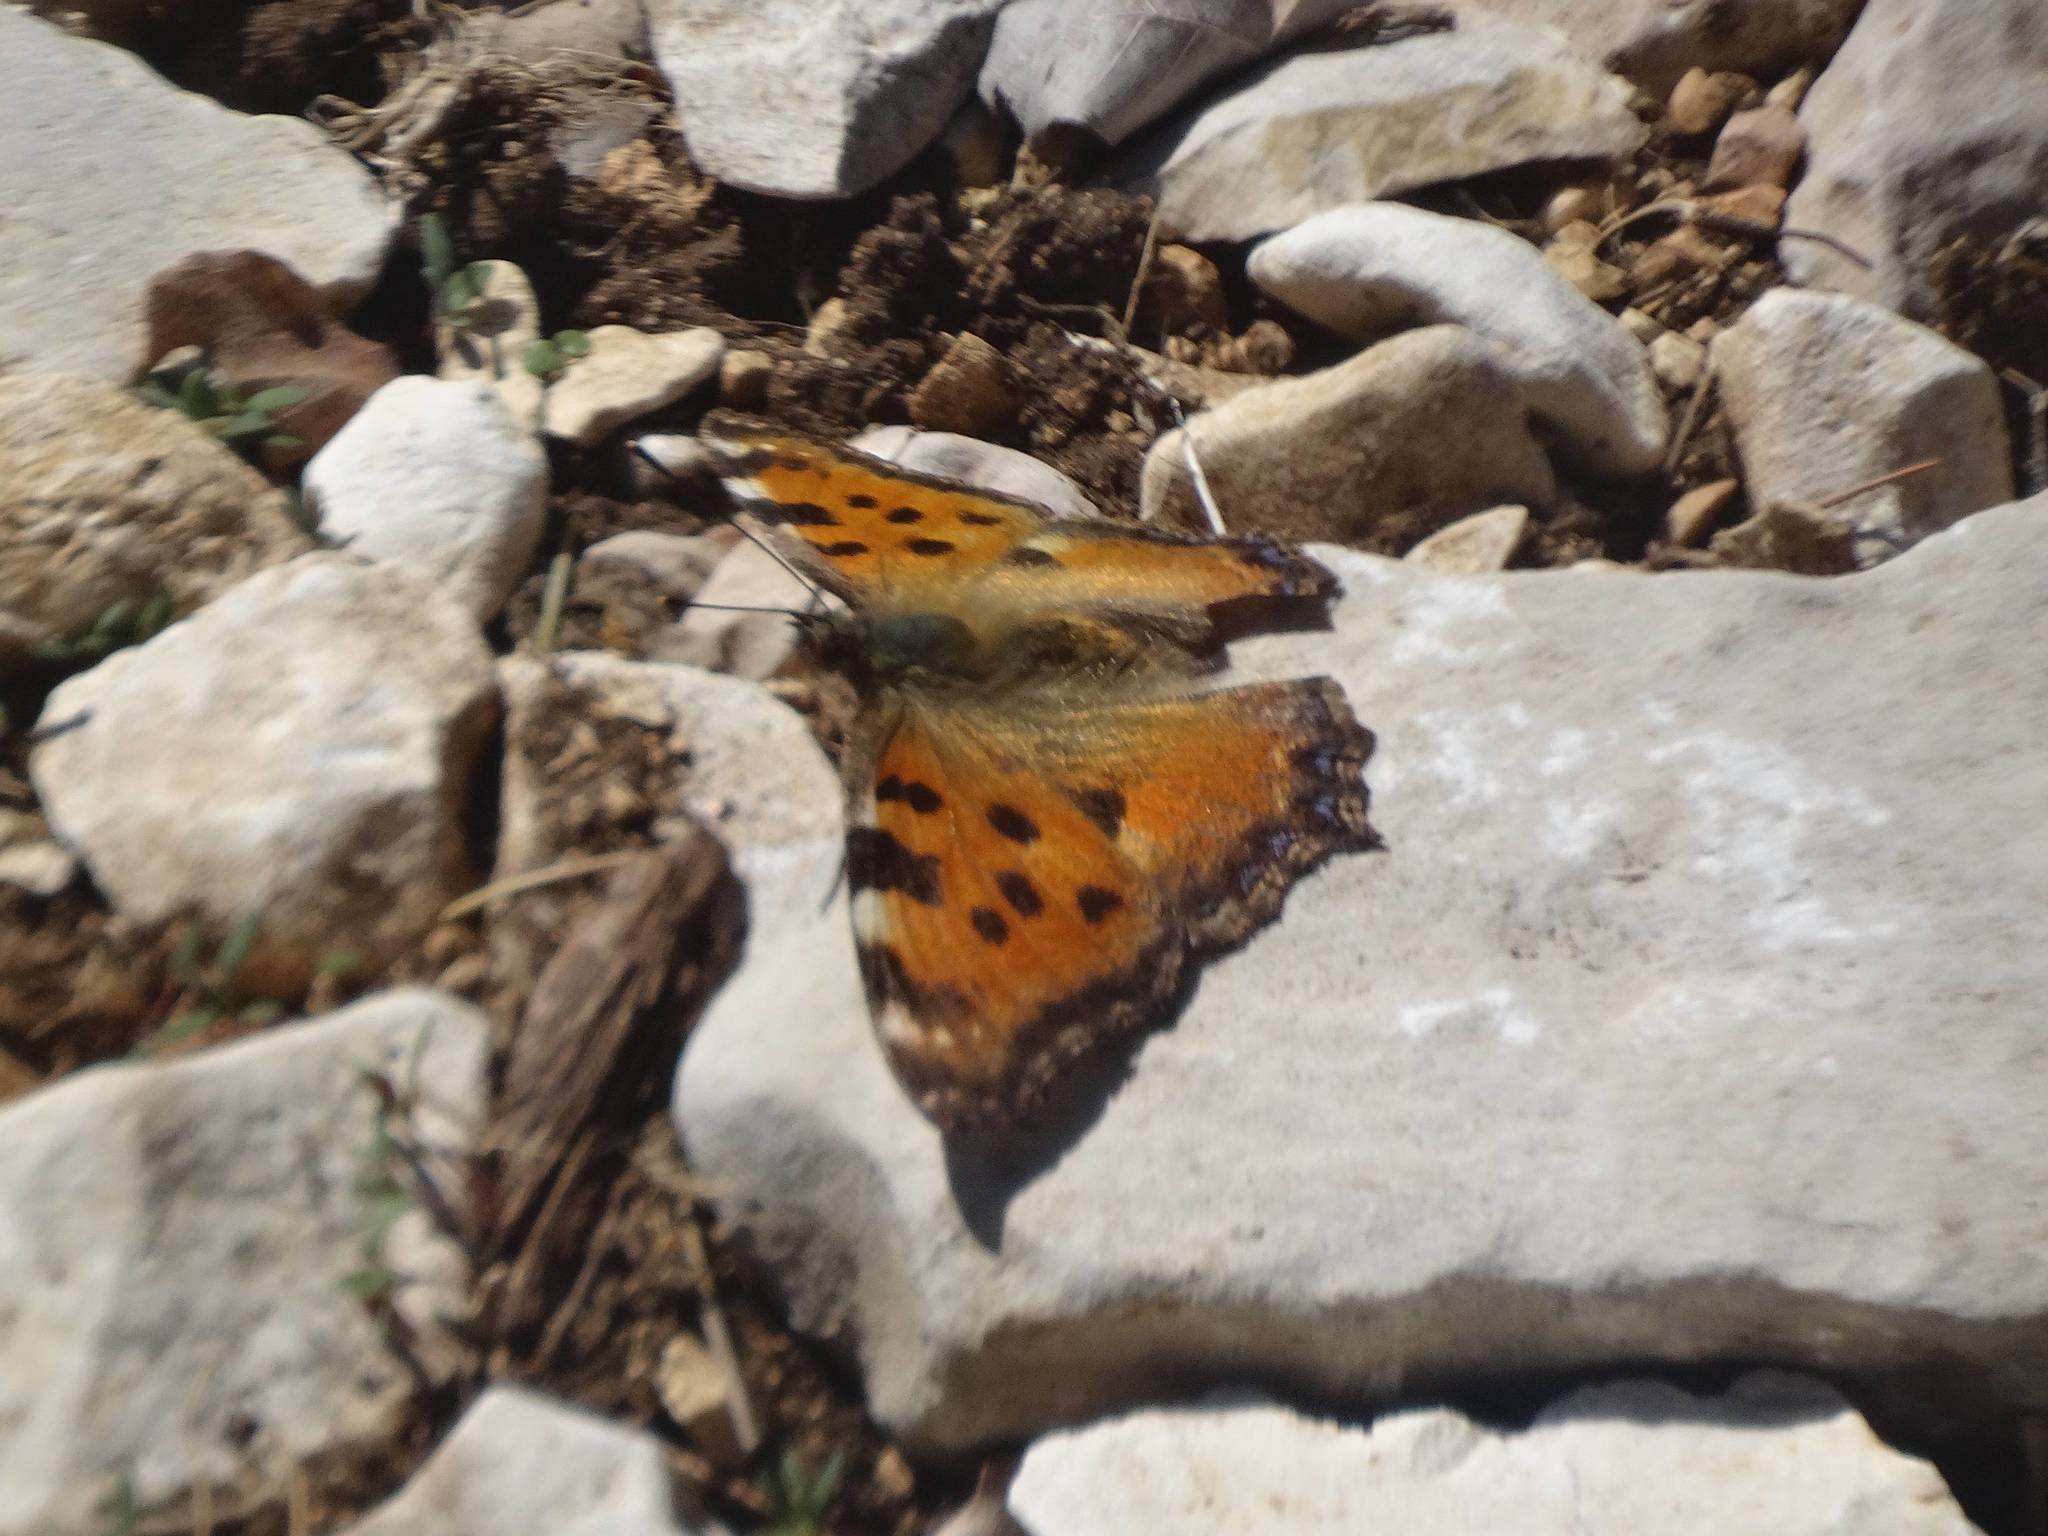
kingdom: Animalia
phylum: Arthropoda
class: Insecta
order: Lepidoptera
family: Nymphalidae
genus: Nymphalis
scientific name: Nymphalis polychloros
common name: Large tortoiseshell
